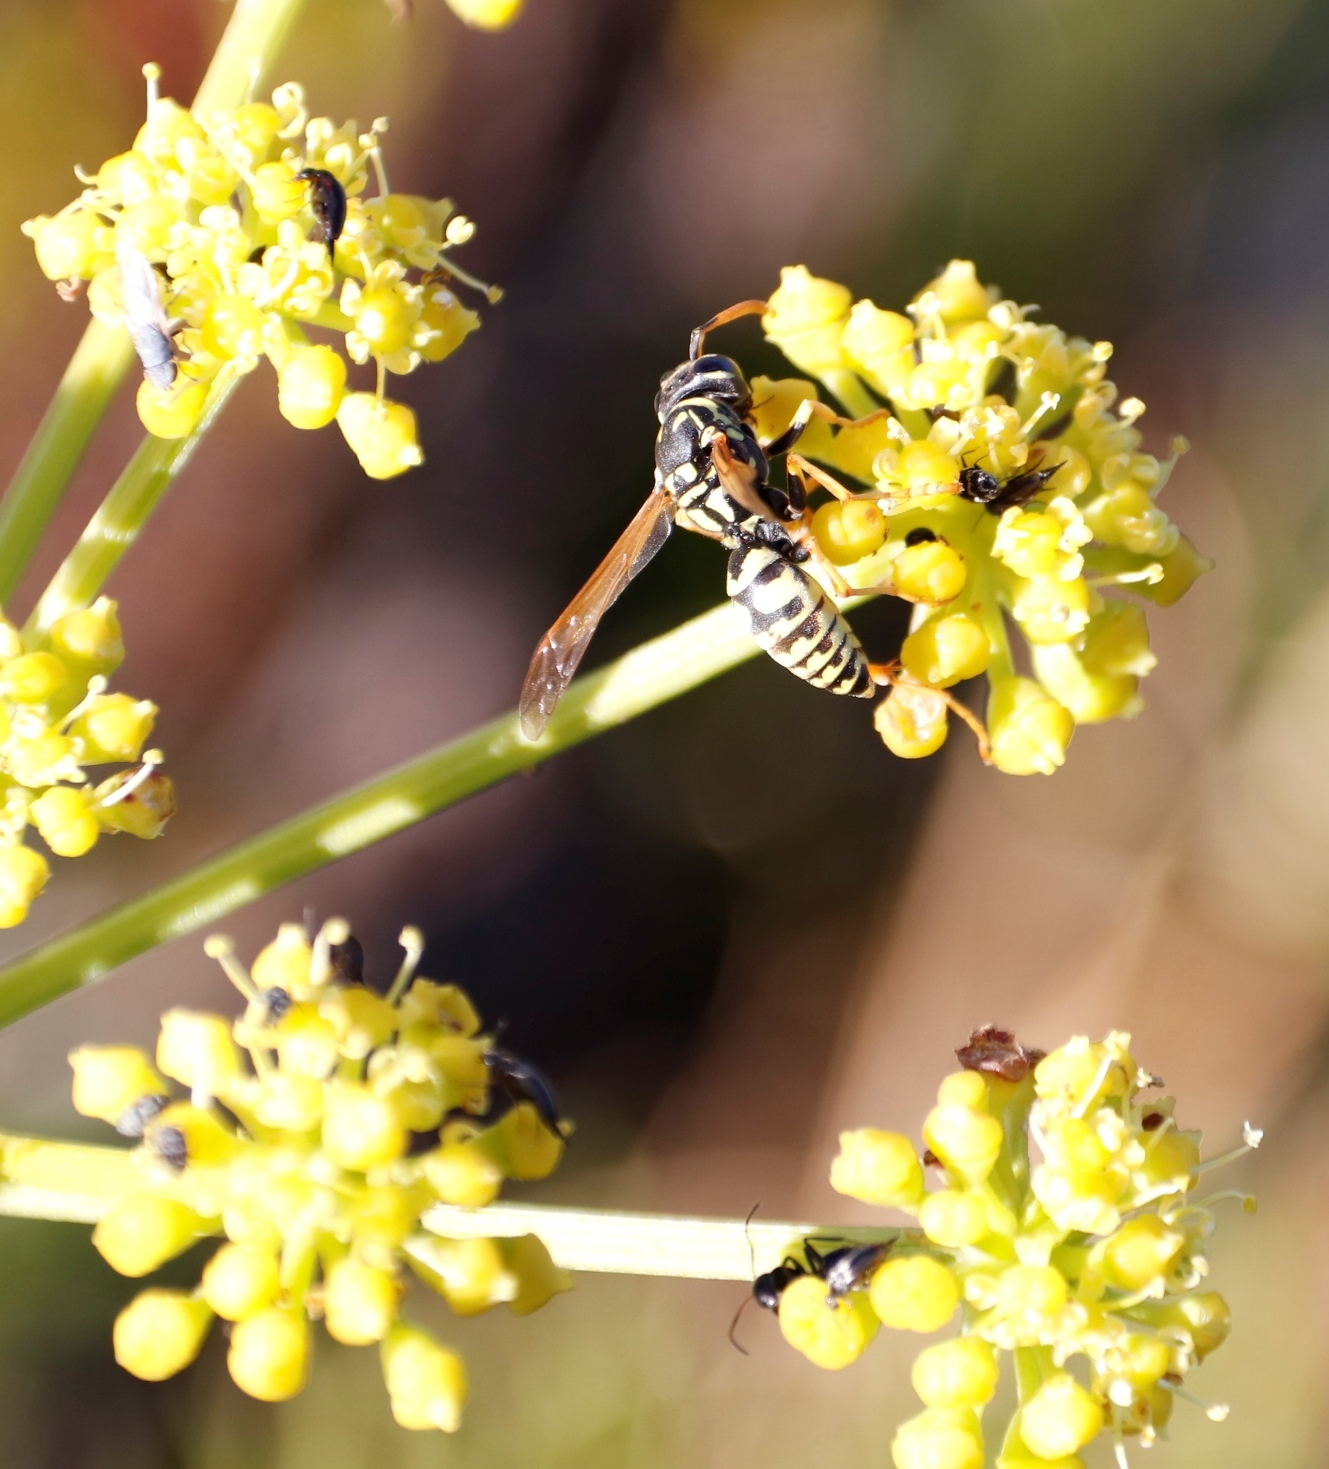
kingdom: Animalia
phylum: Arthropoda
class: Insecta
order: Hymenoptera
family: Eumenidae
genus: Polistes
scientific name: Polistes dominula
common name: Paper wasp
